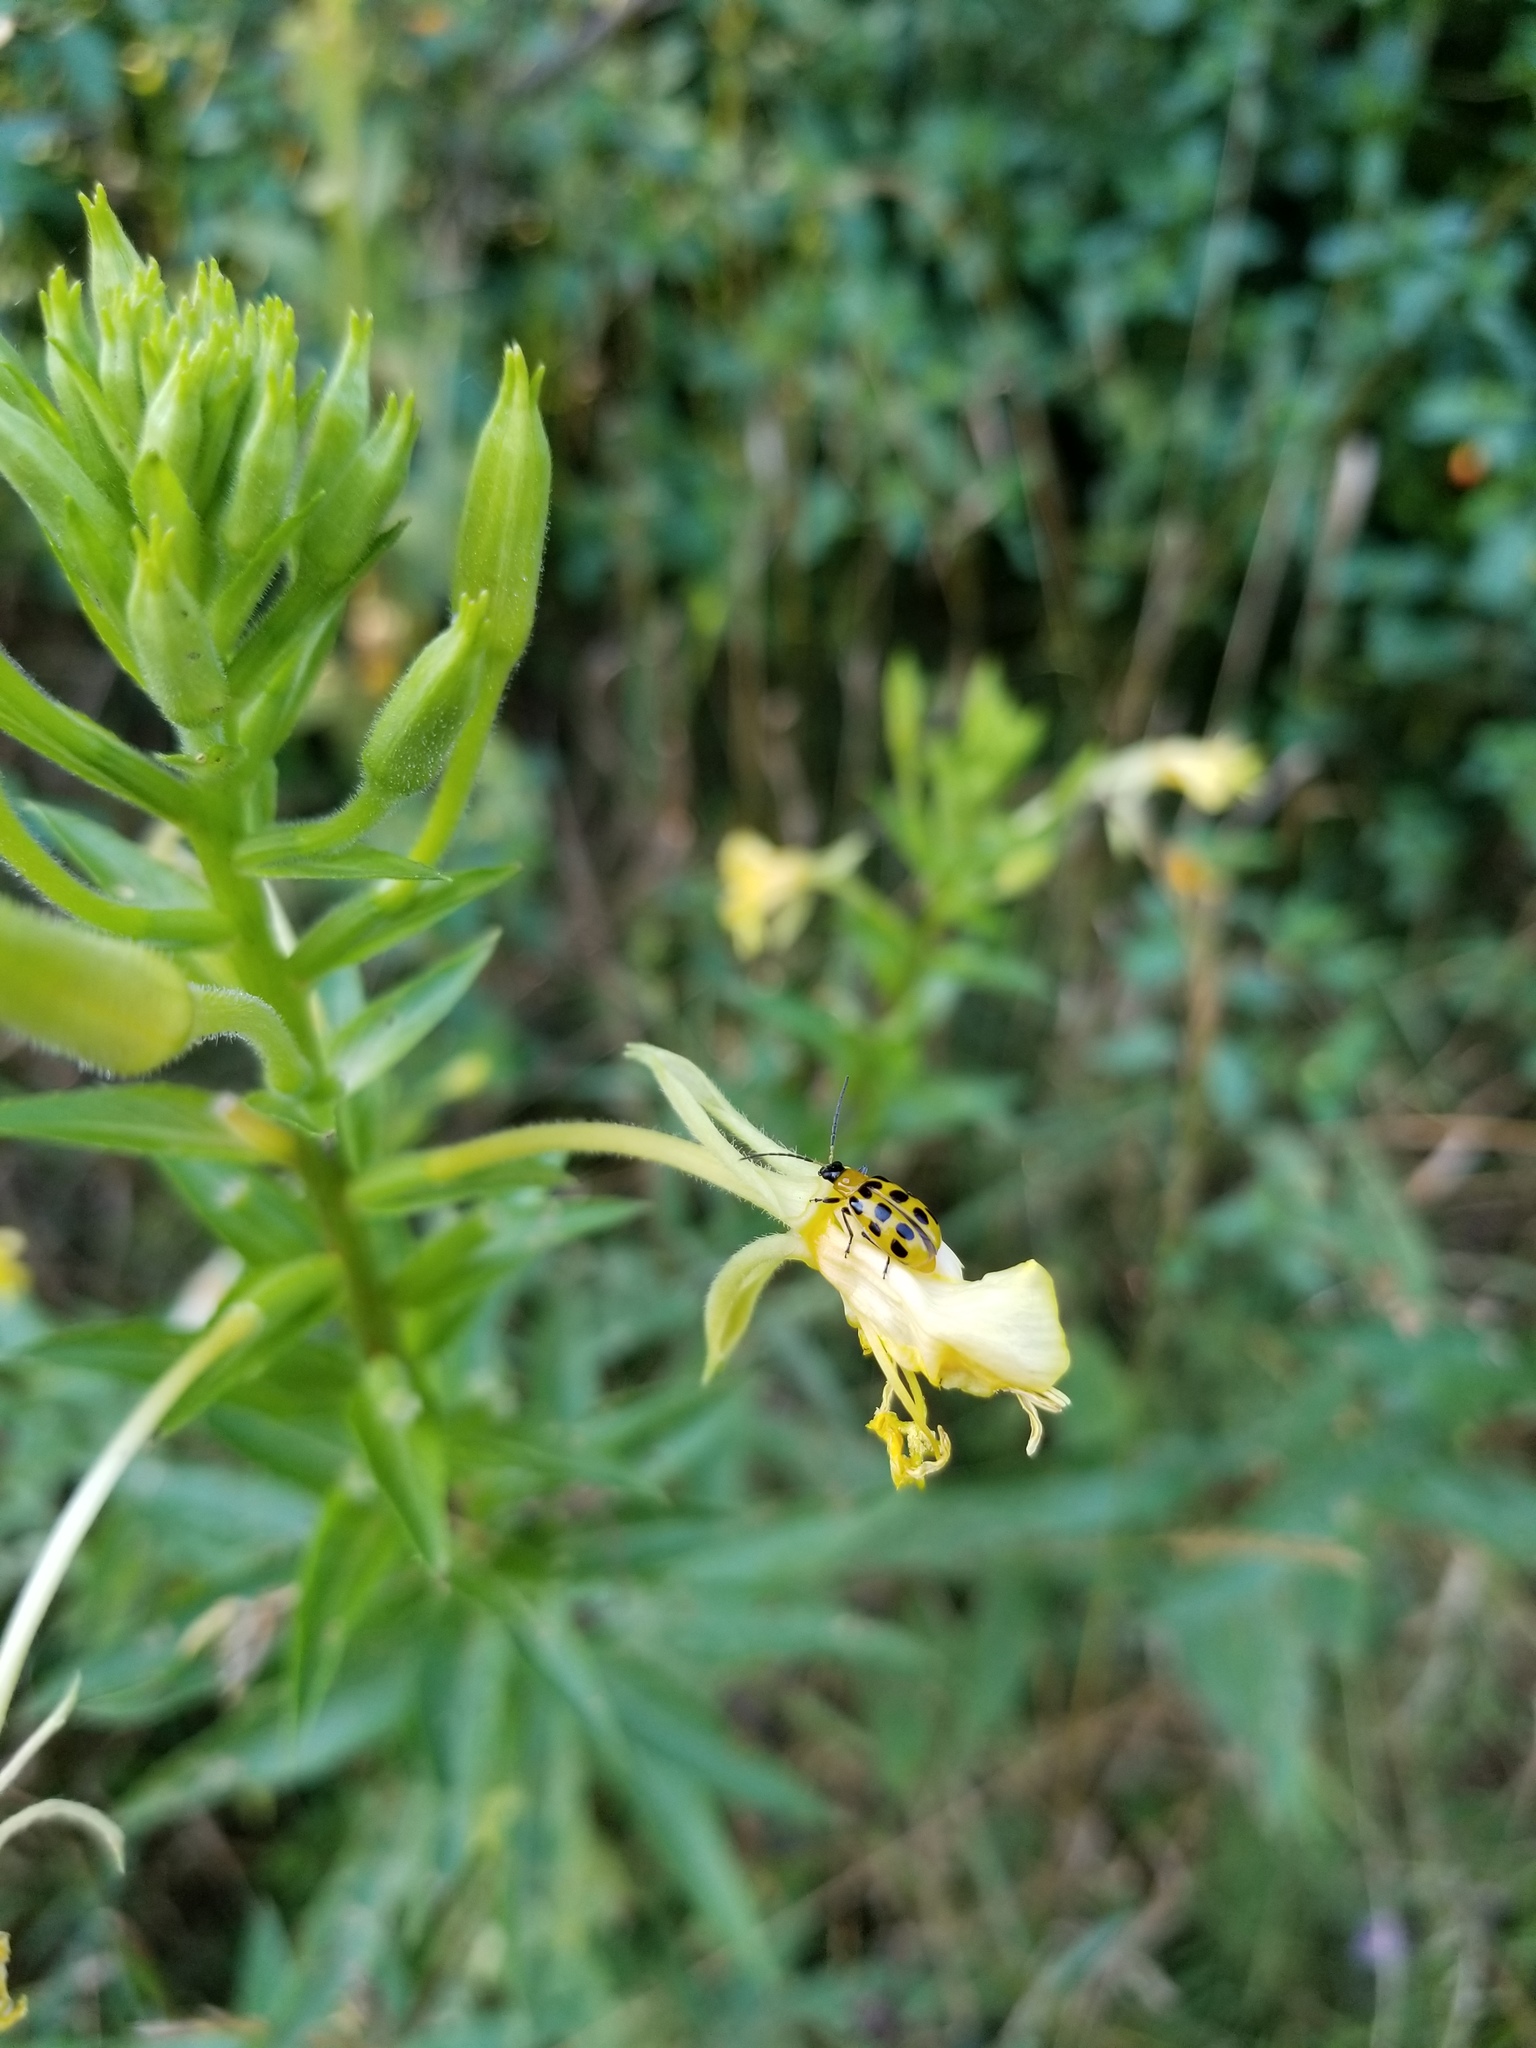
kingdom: Animalia
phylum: Arthropoda
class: Insecta
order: Coleoptera
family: Chrysomelidae
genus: Diabrotica
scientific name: Diabrotica undecimpunctata
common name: Spotted cucumber beetle
